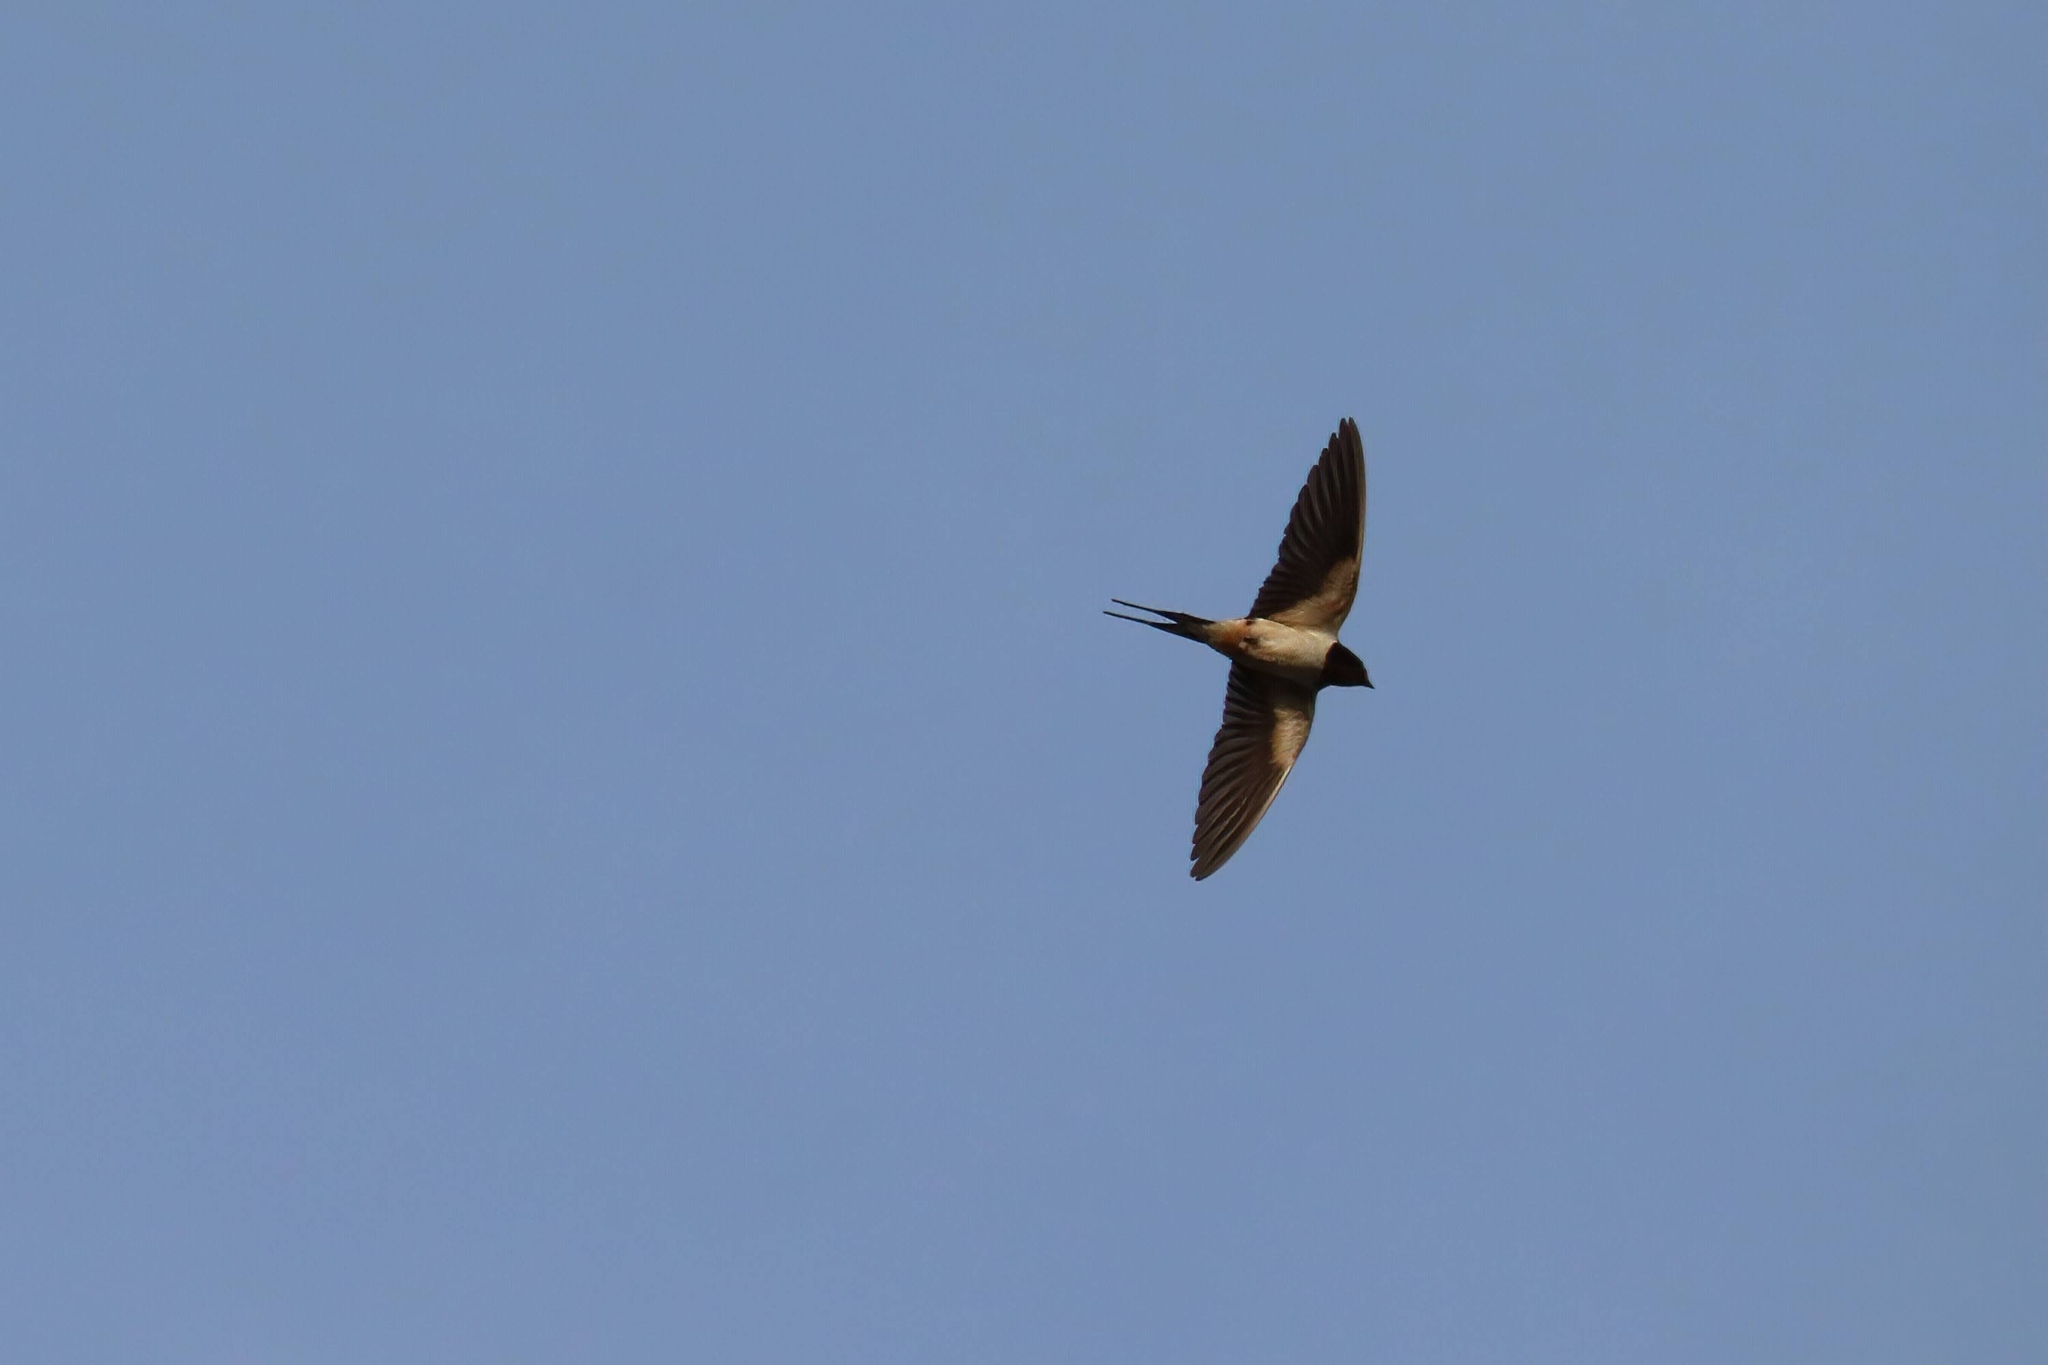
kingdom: Animalia
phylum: Chordata
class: Aves
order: Passeriformes
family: Hirundinidae
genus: Hirundo
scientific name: Hirundo rustica
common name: Barn swallow
